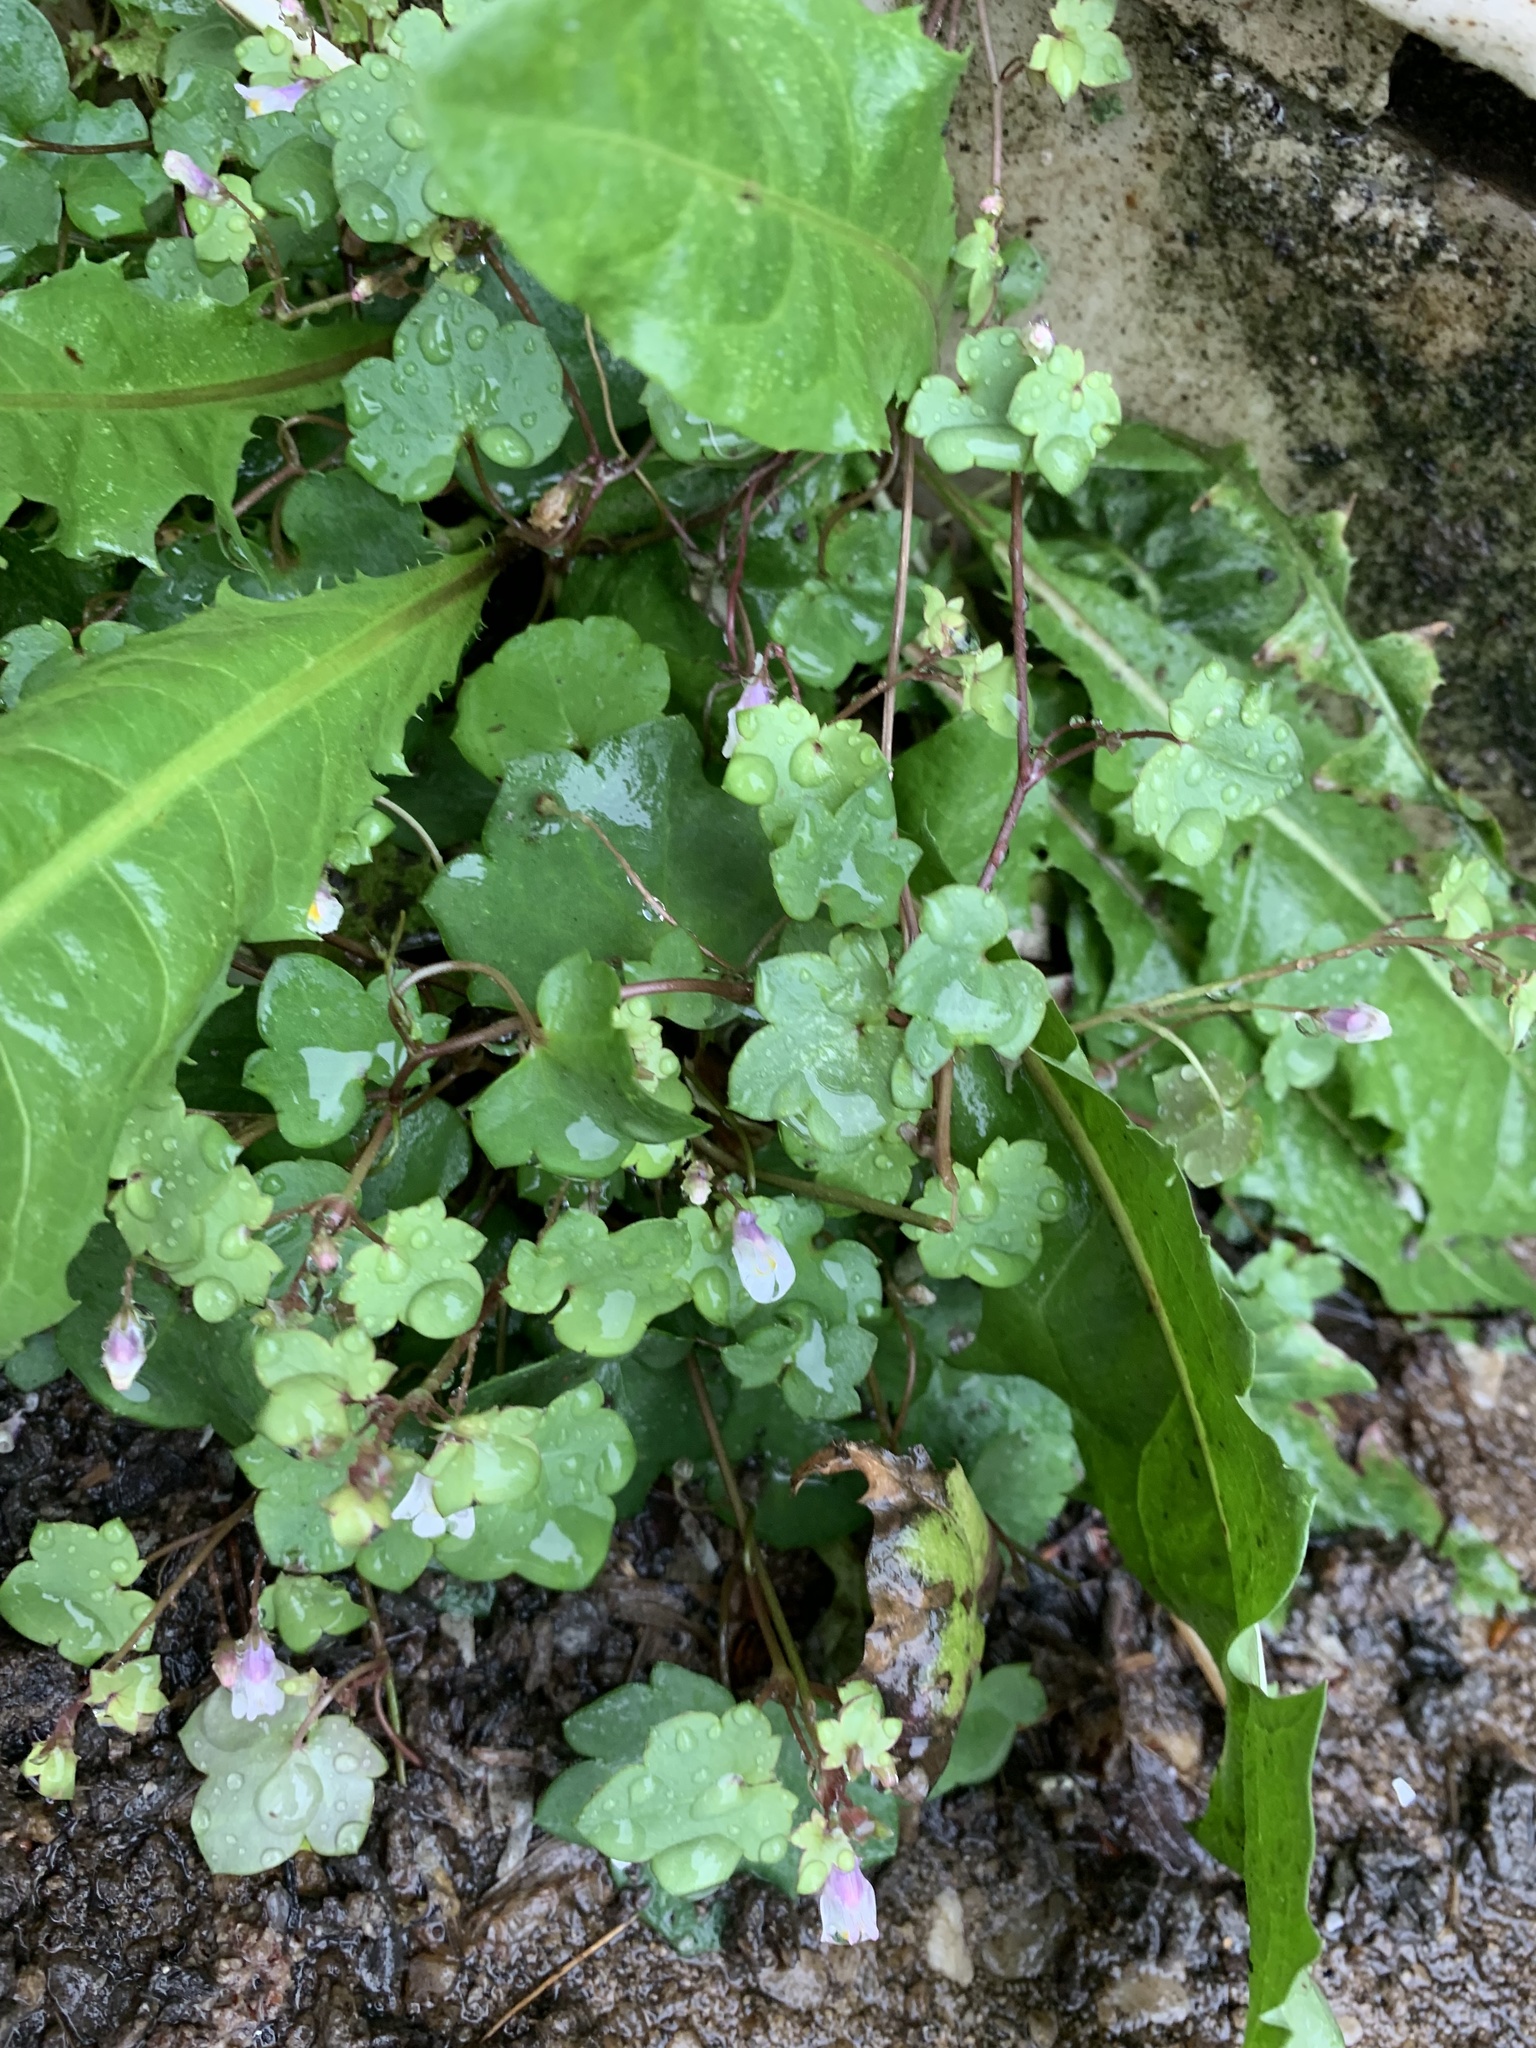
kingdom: Plantae
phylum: Tracheophyta
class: Magnoliopsida
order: Lamiales
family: Plantaginaceae
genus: Cymbalaria
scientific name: Cymbalaria muralis
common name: Ivy-leaved toadflax
